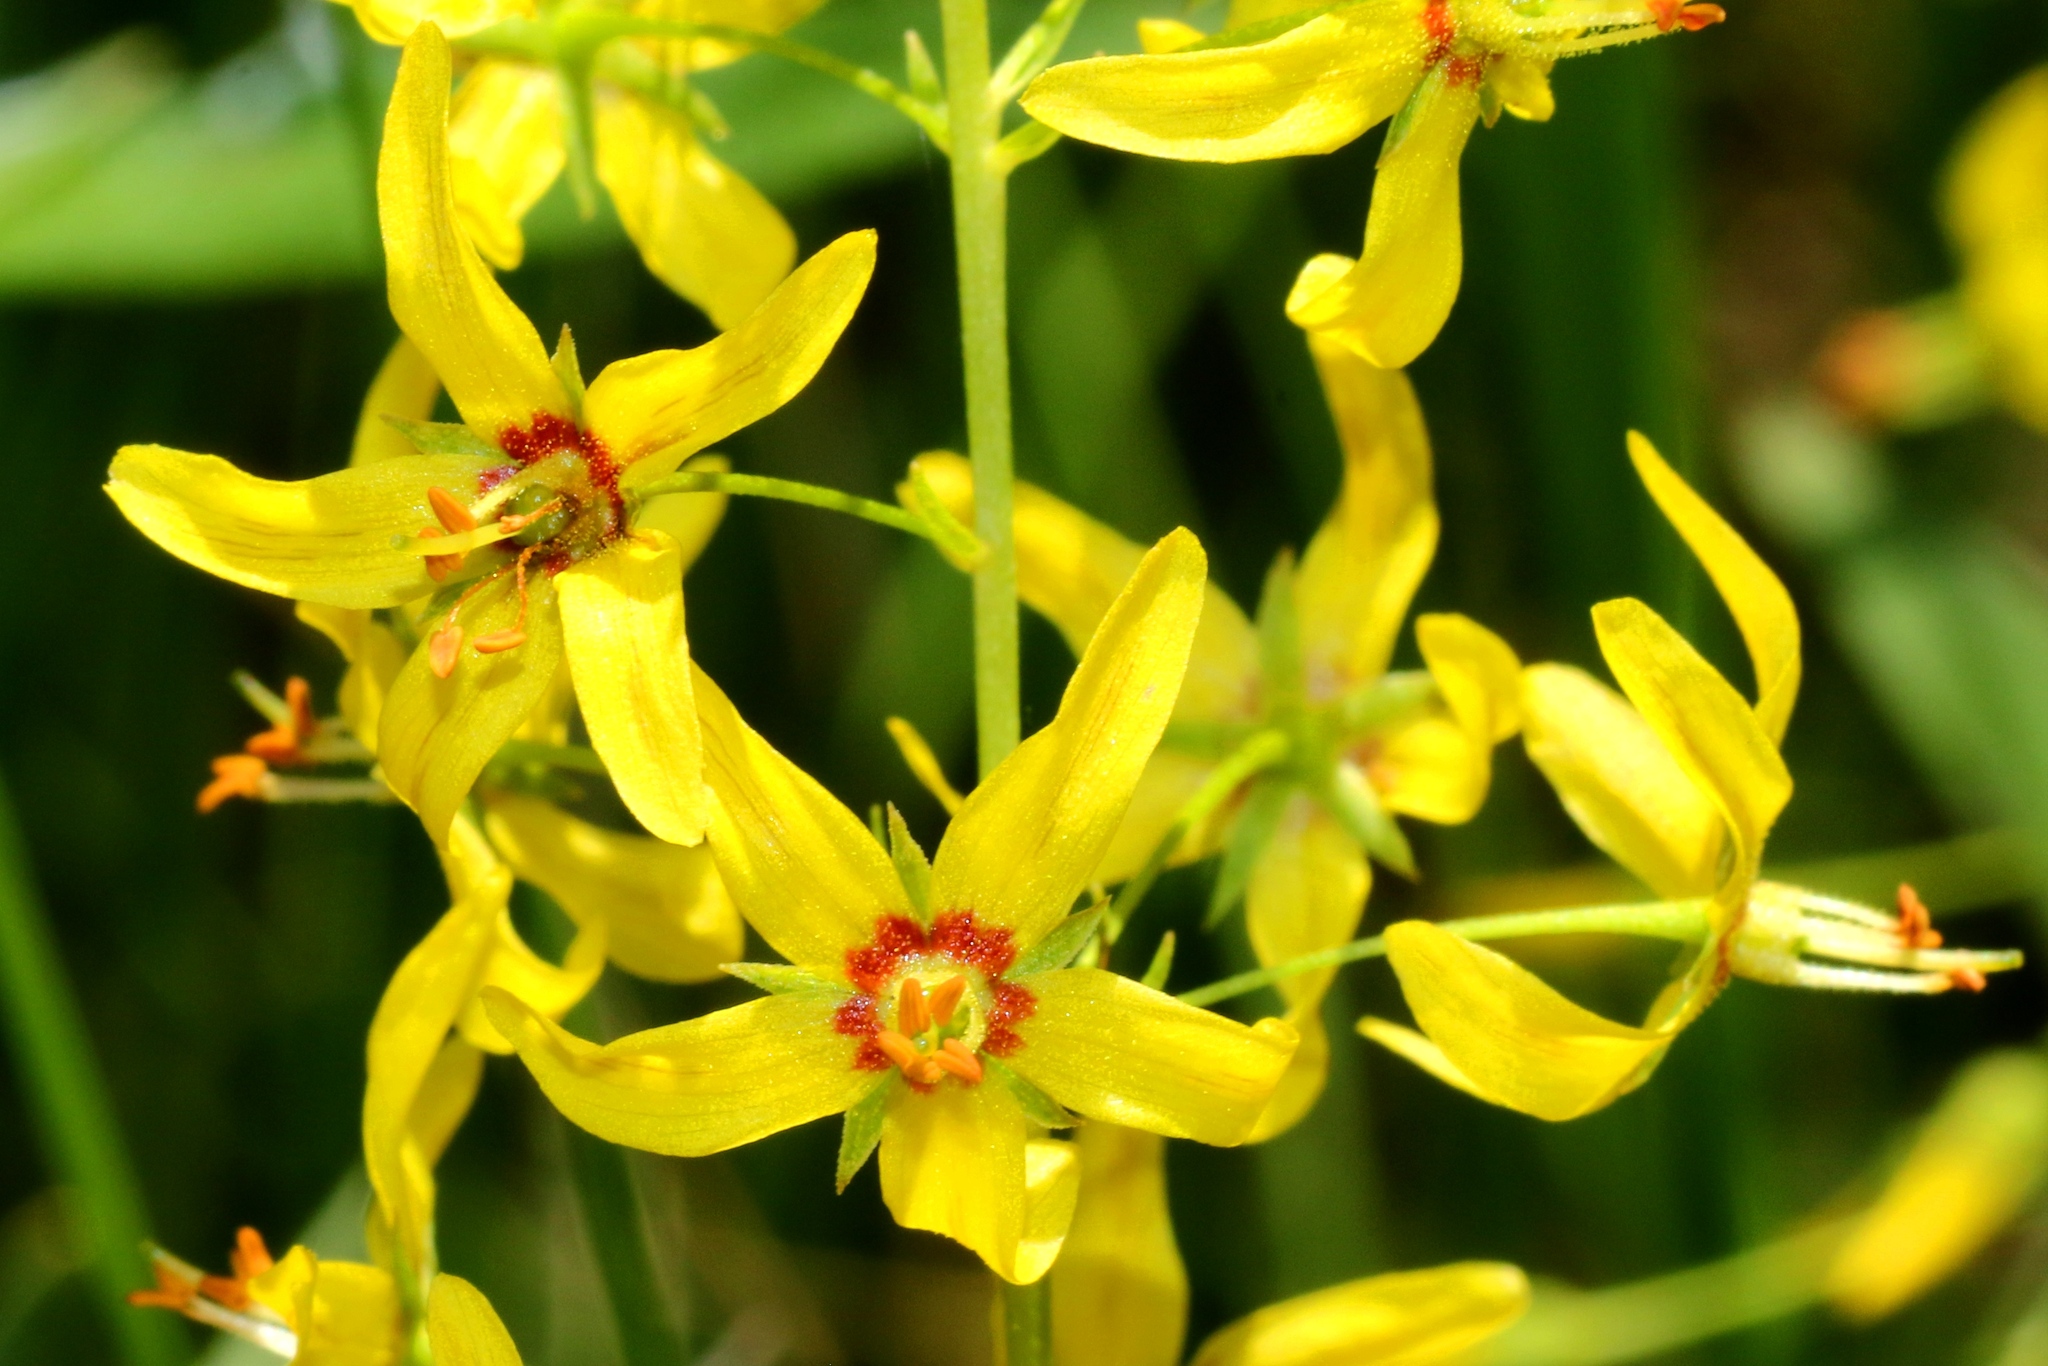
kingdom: Plantae
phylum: Tracheophyta
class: Magnoliopsida
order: Ericales
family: Primulaceae
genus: Lysimachia
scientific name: Lysimachia terrestris
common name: Lake loosestrife
